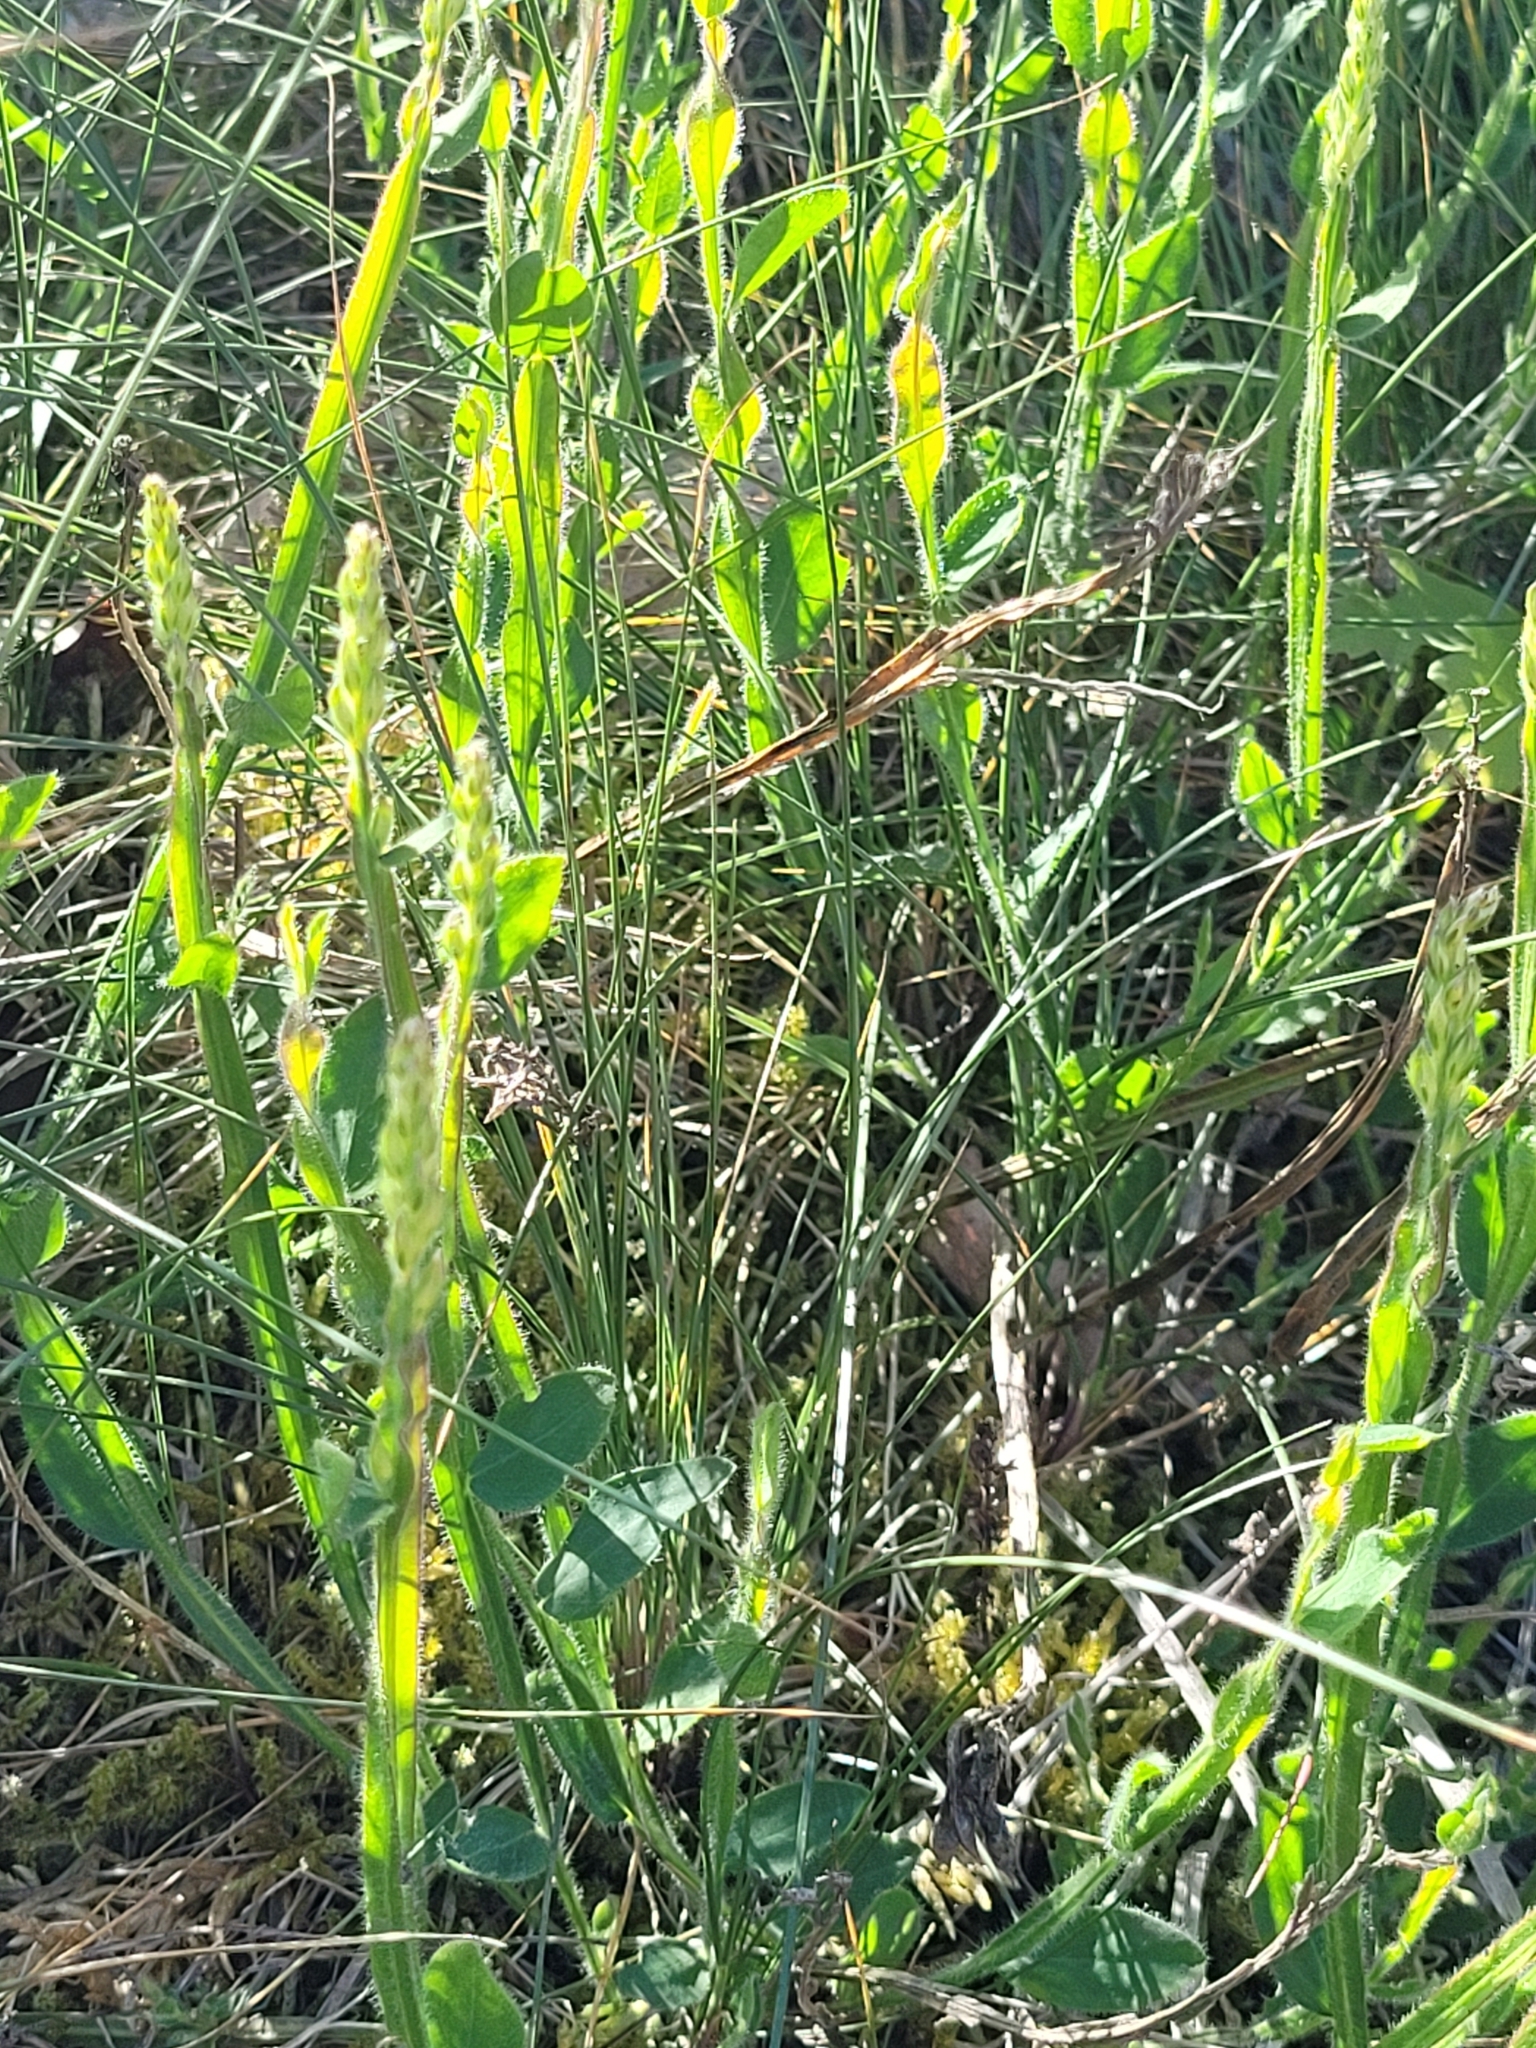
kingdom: Plantae
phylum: Tracheophyta
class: Magnoliopsida
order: Fabales
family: Fabaceae
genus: Genista
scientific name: Genista sagittalis
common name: Winged greenweed
